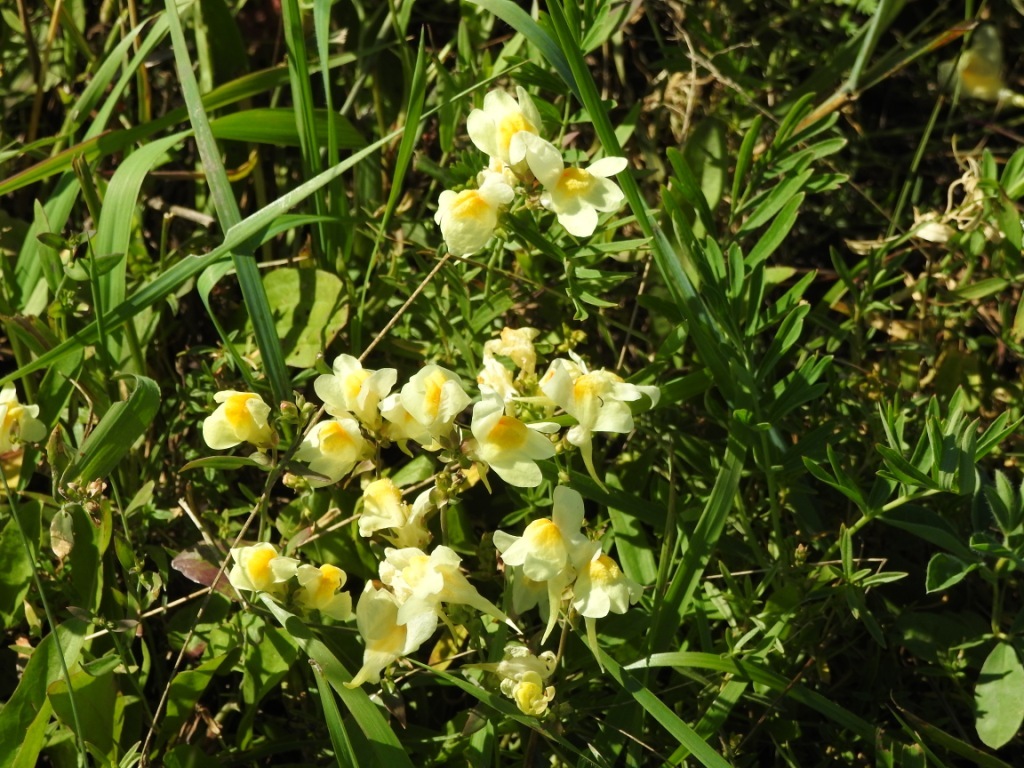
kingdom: Plantae
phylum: Tracheophyta
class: Magnoliopsida
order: Lamiales
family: Plantaginaceae
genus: Linaria
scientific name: Linaria buriatica
